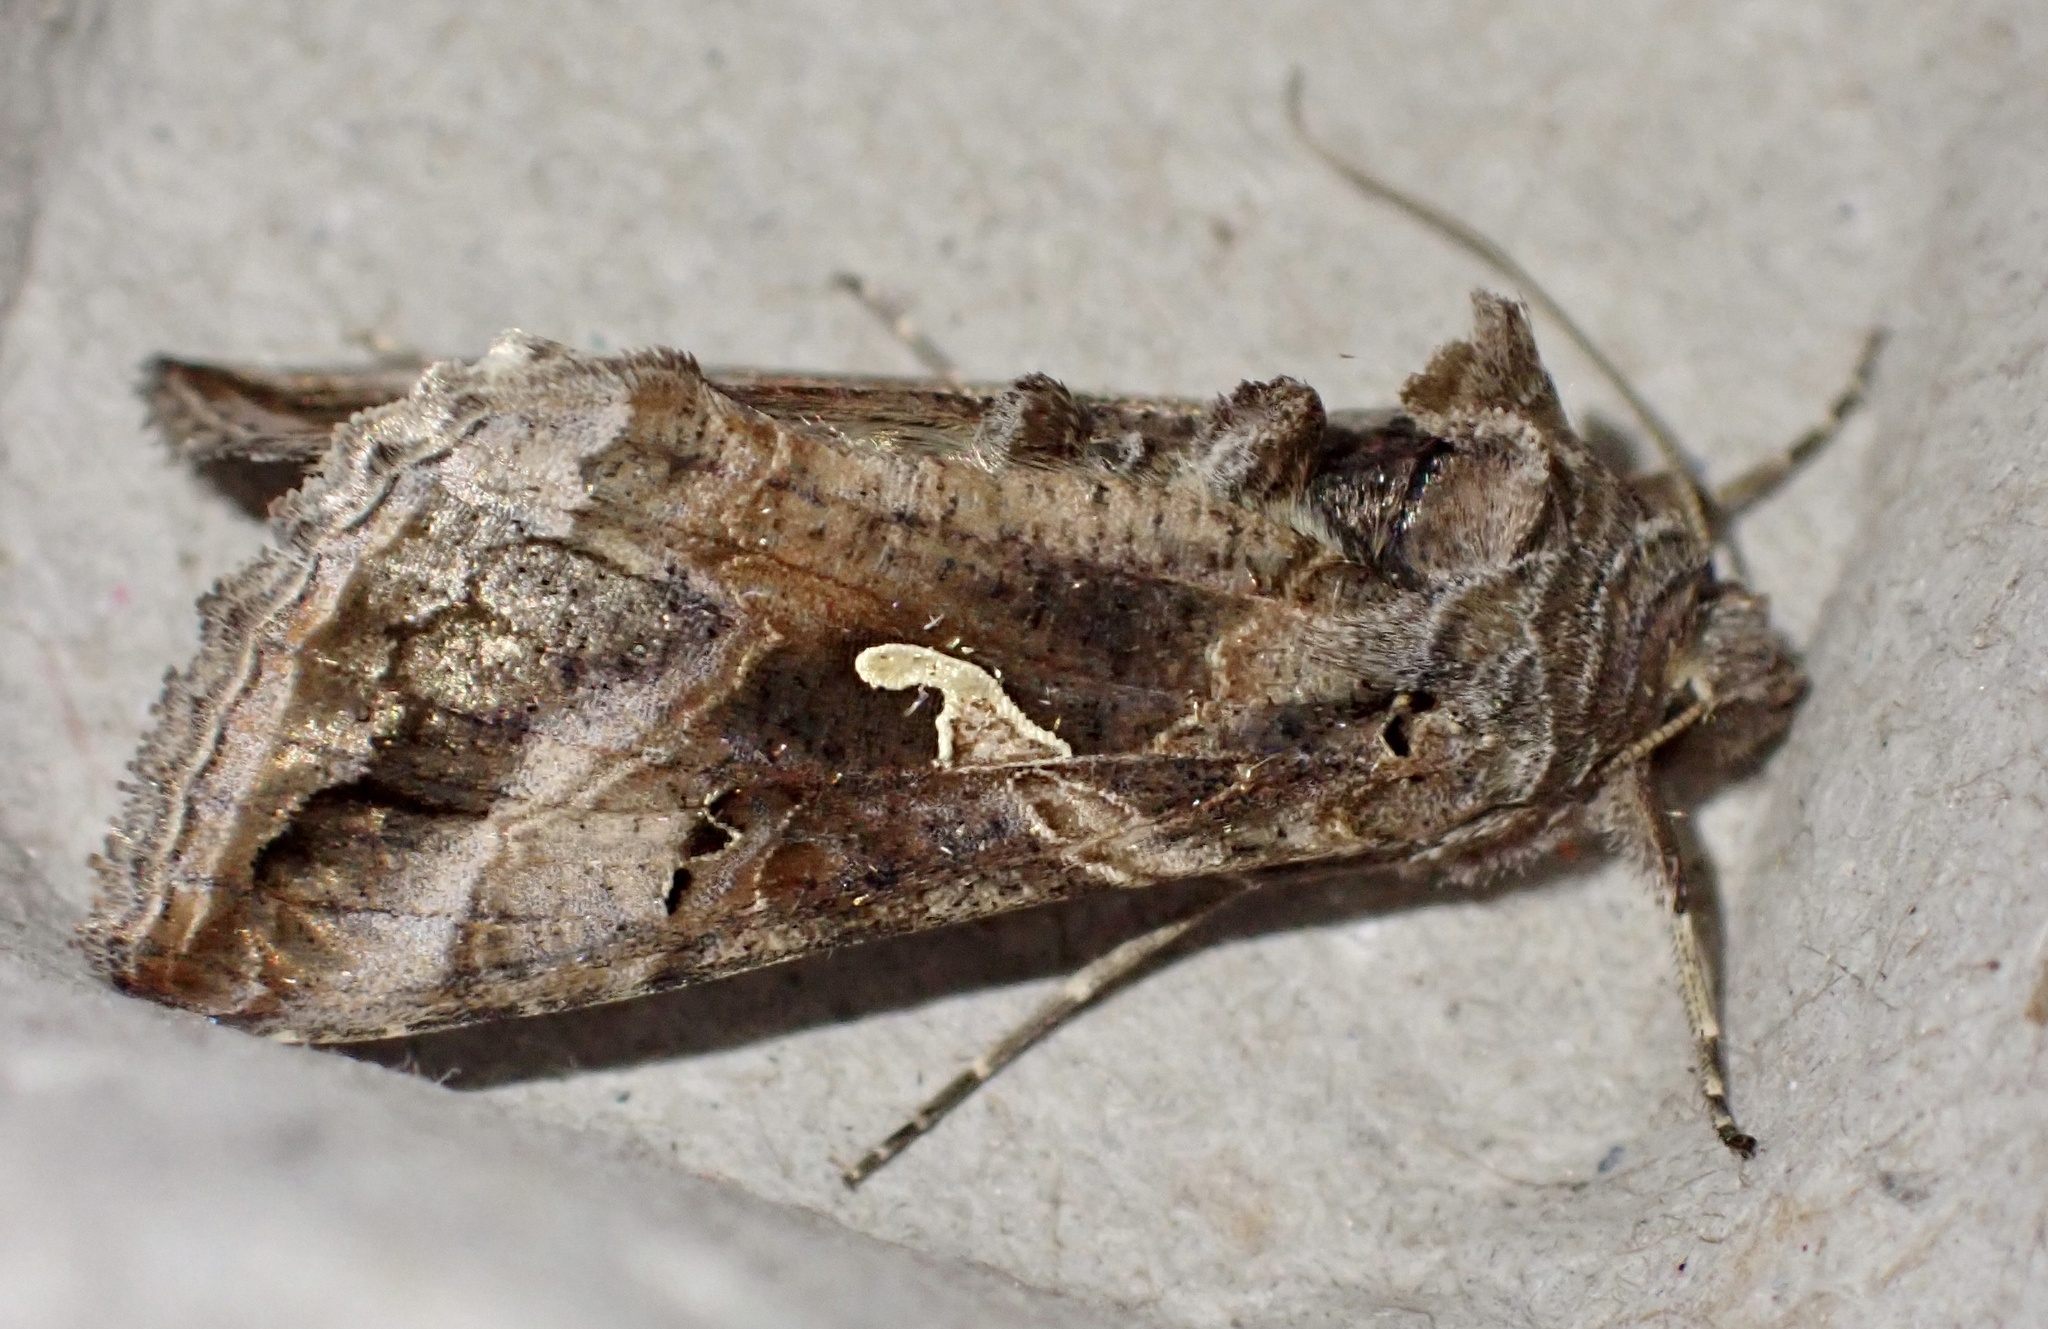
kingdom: Animalia
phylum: Arthropoda
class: Insecta
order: Lepidoptera
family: Noctuidae
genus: Autographa
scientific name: Autographa gamma
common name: Silver y
